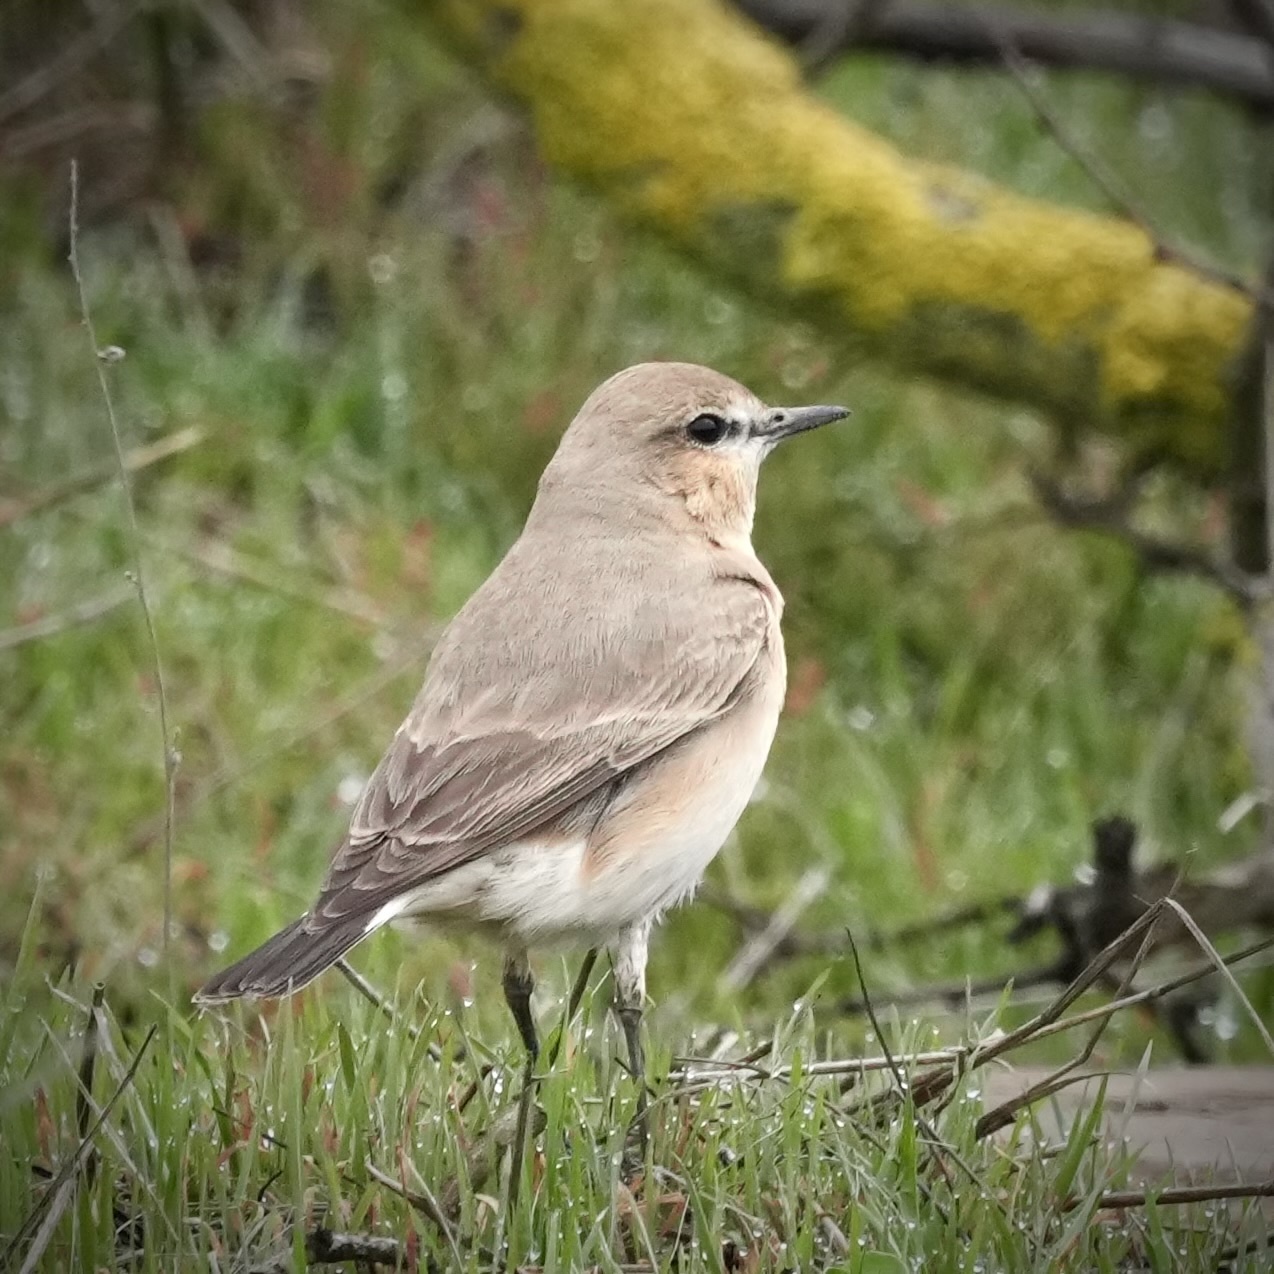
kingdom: Animalia
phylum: Chordata
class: Aves
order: Passeriformes
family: Muscicapidae
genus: Oenanthe
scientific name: Oenanthe isabellina
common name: Isabelline wheatear
